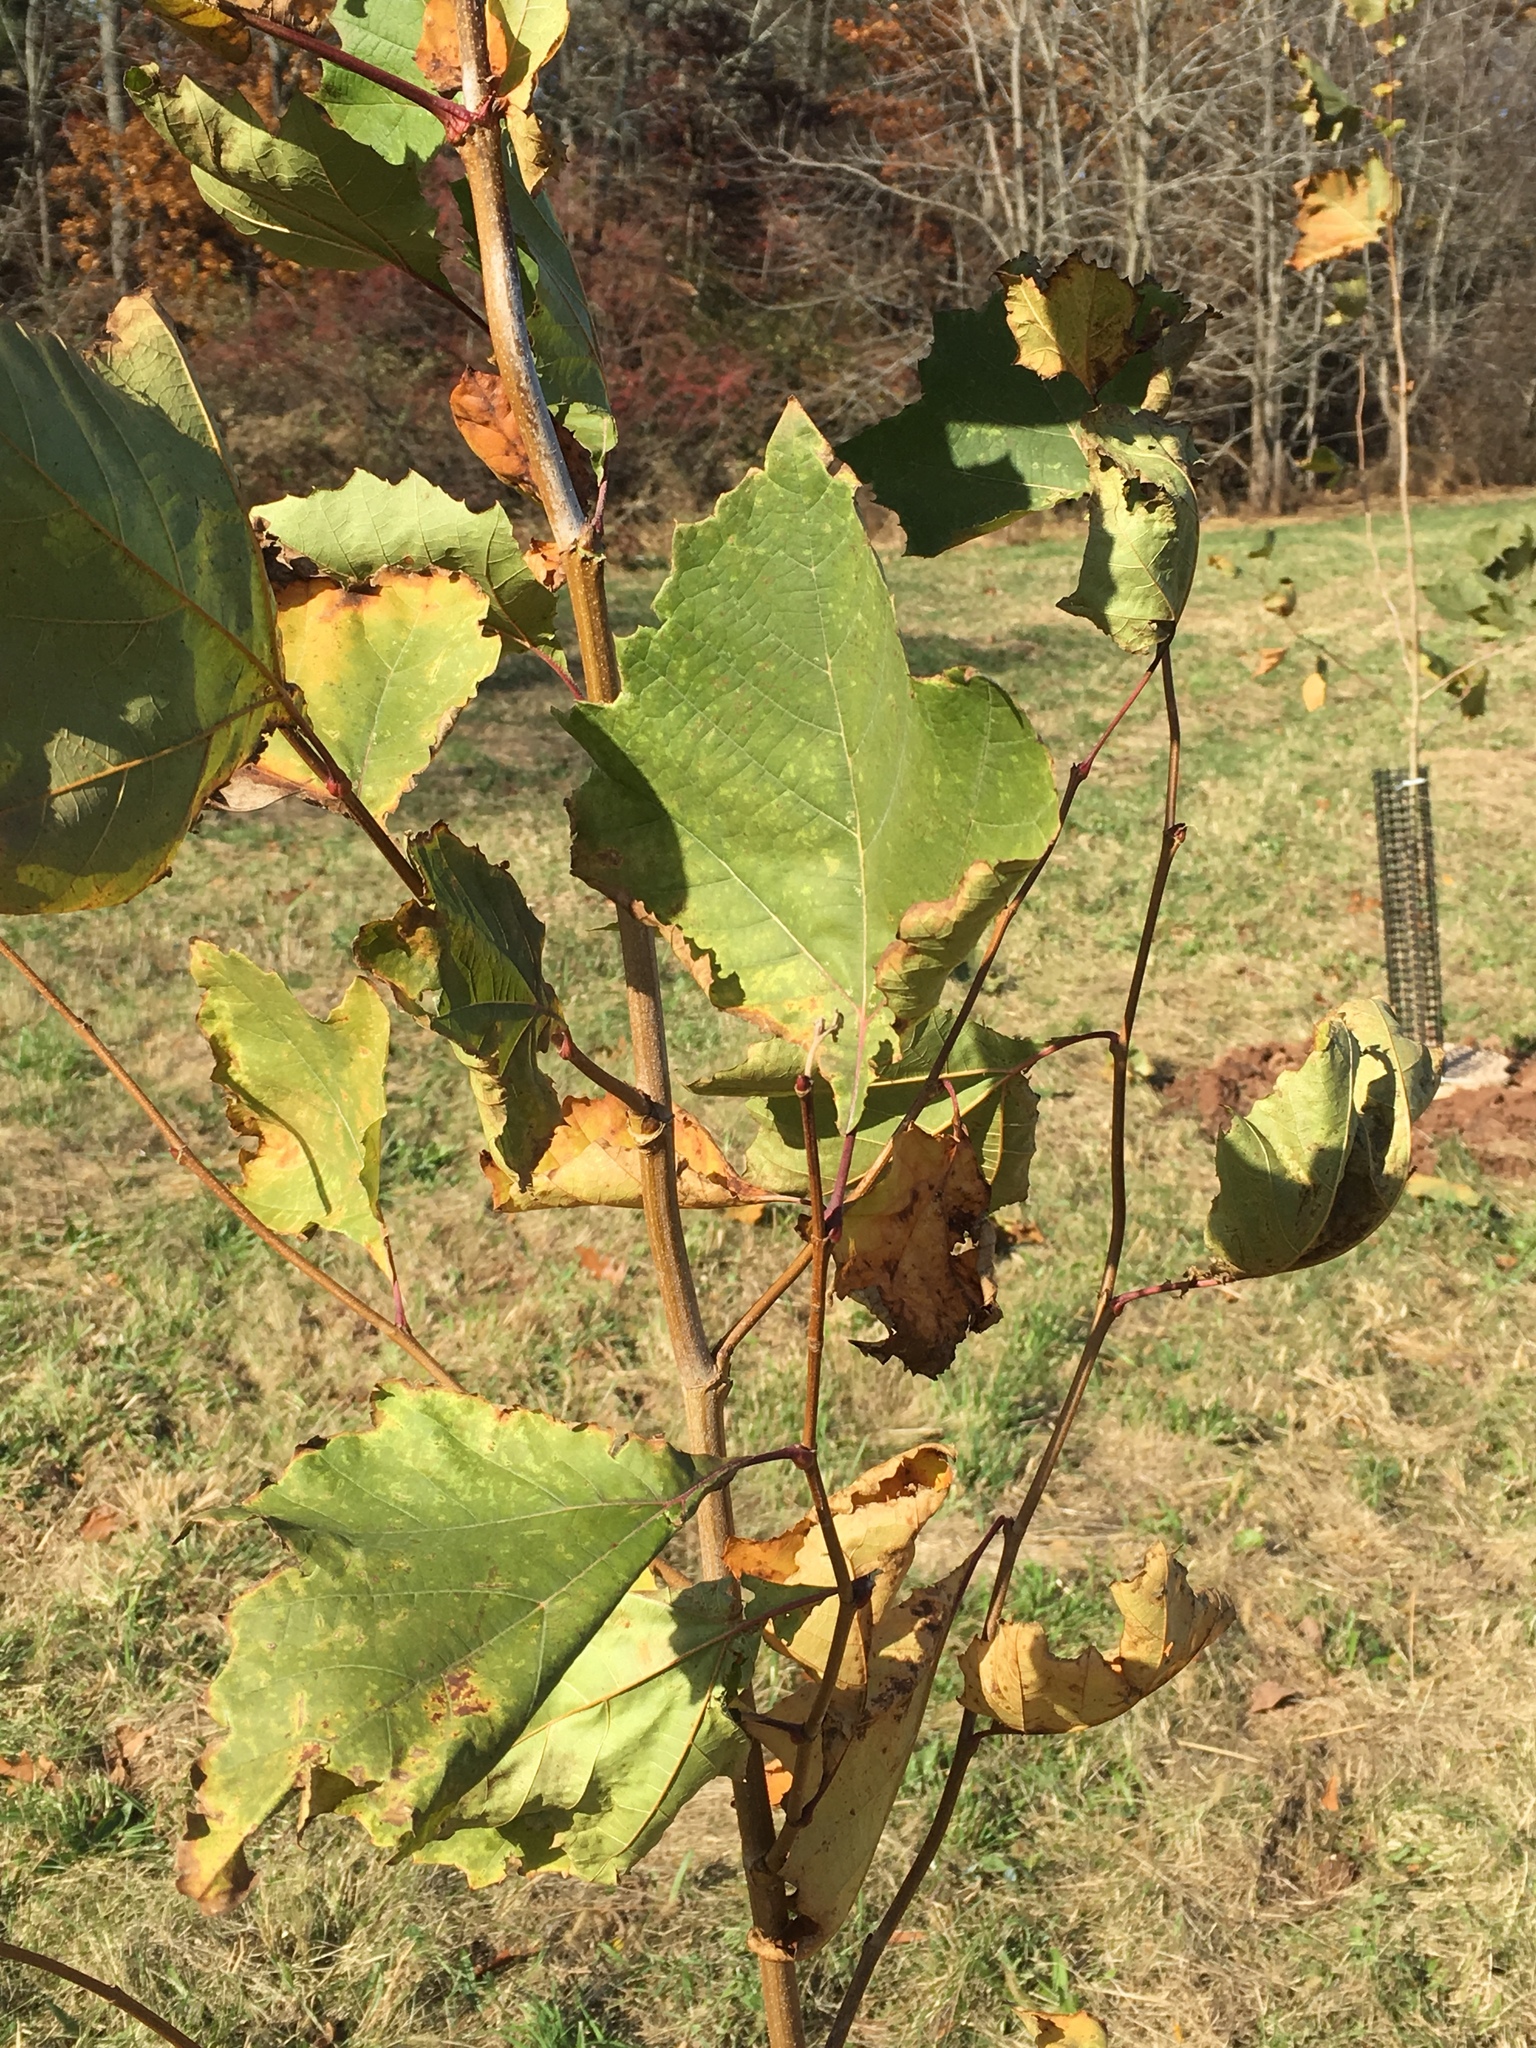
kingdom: Plantae
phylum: Tracheophyta
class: Magnoliopsida
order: Proteales
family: Platanaceae
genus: Platanus
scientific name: Platanus occidentalis
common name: American sycamore
